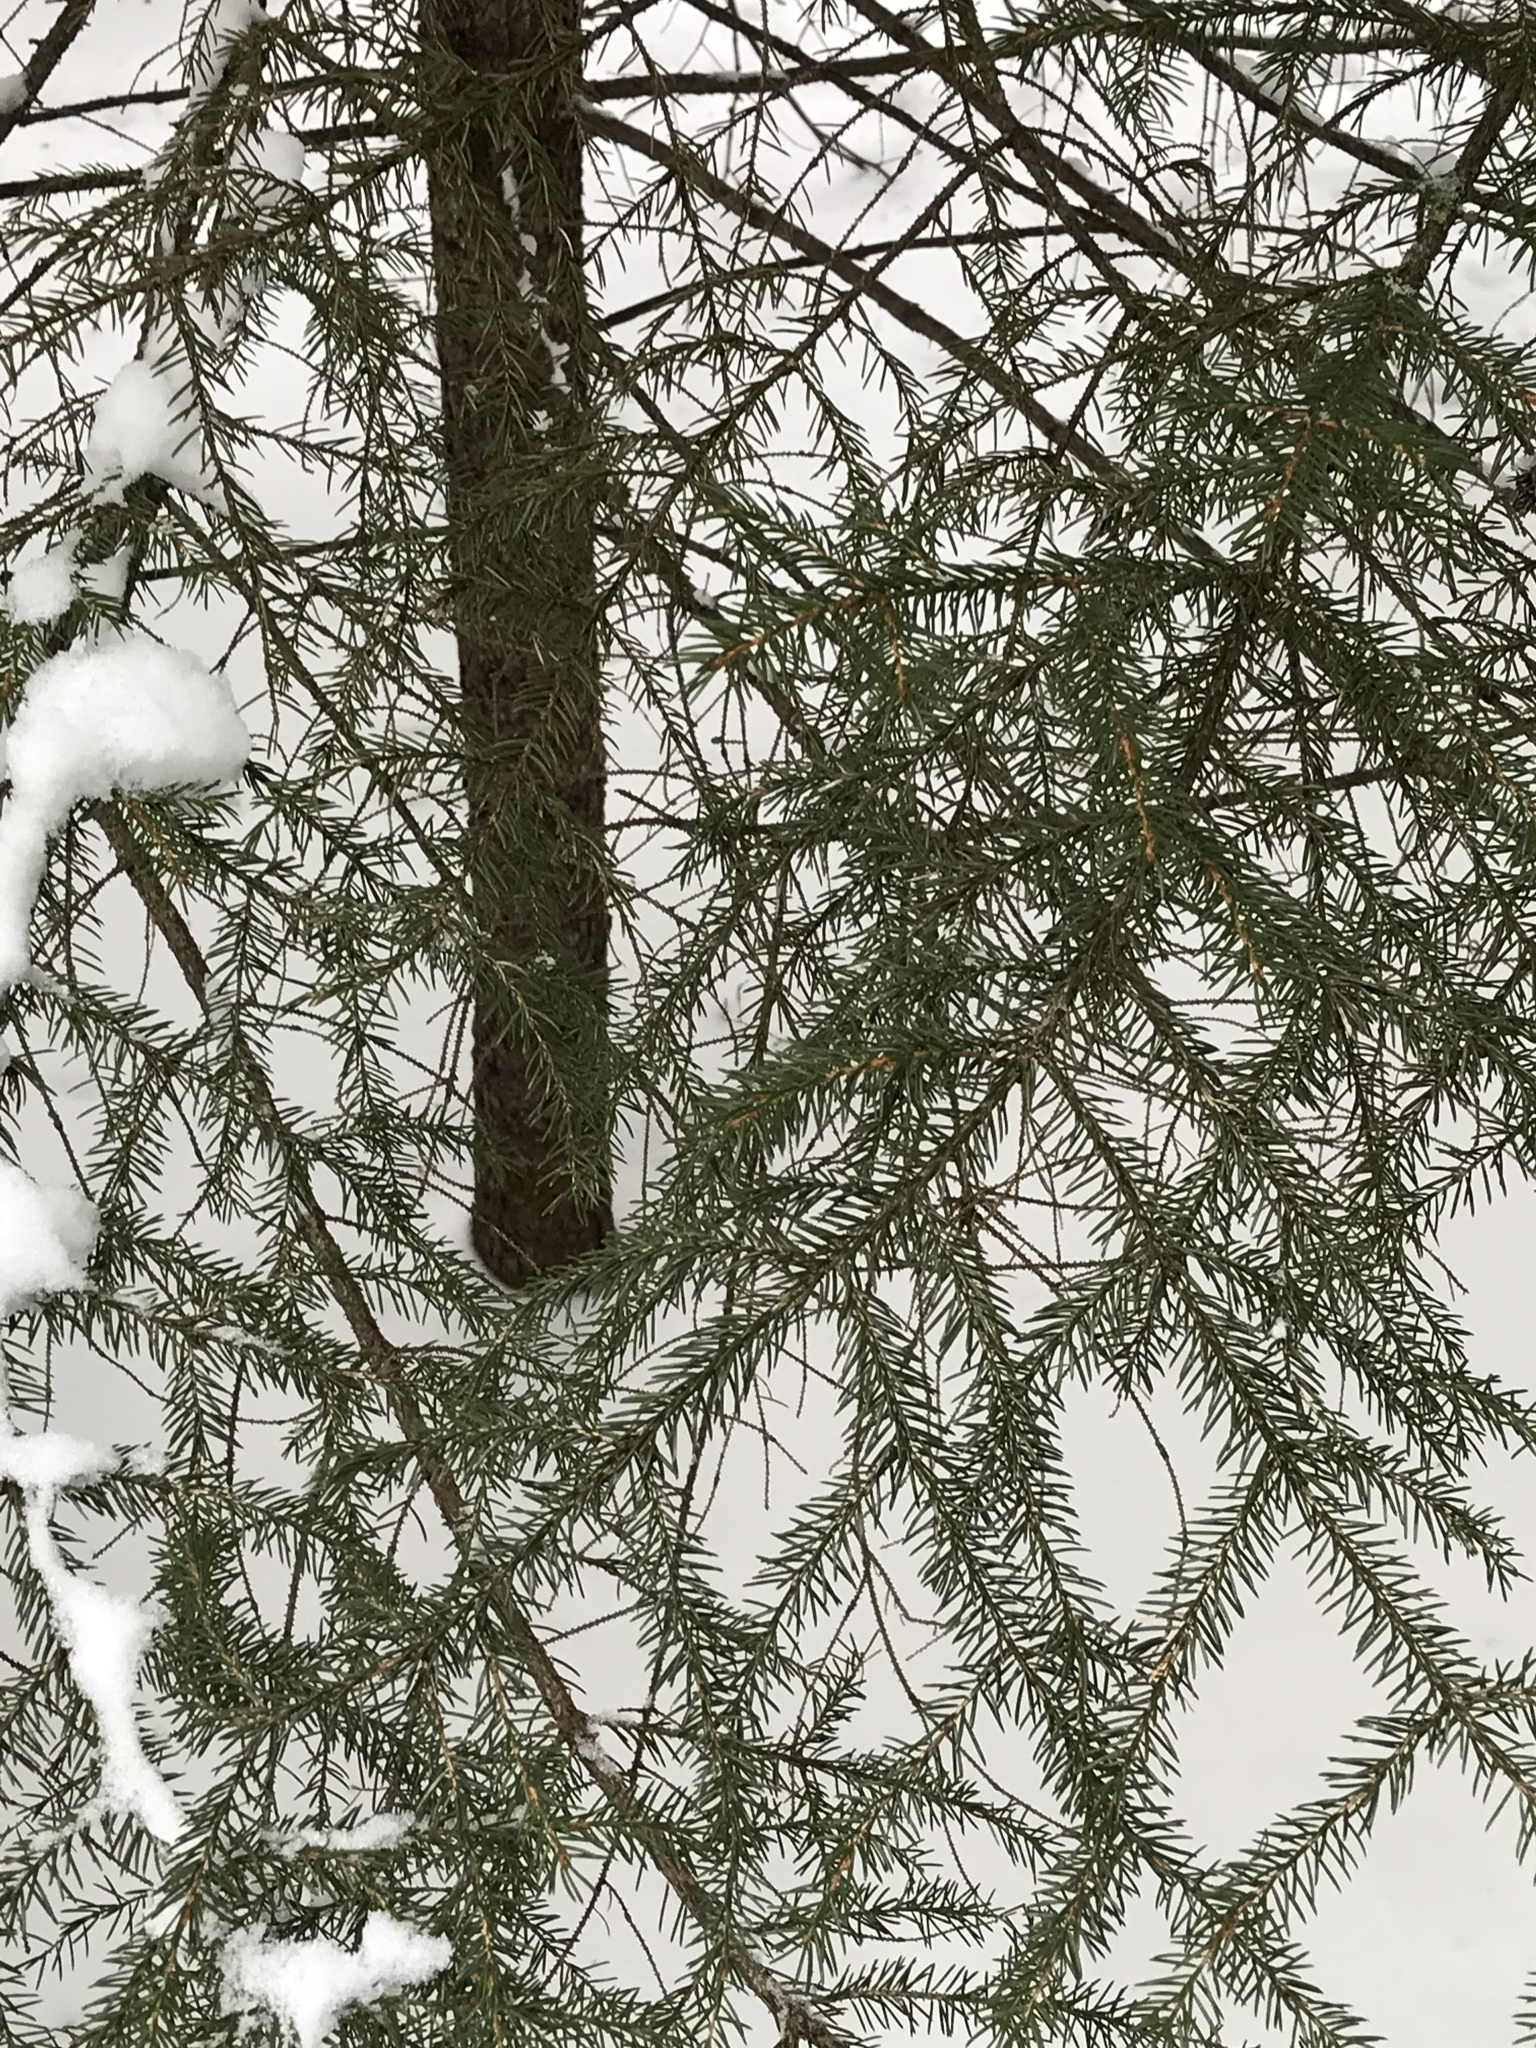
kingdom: Plantae
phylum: Tracheophyta
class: Pinopsida
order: Pinales
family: Pinaceae
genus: Picea
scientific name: Picea rubens
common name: Red spruce
